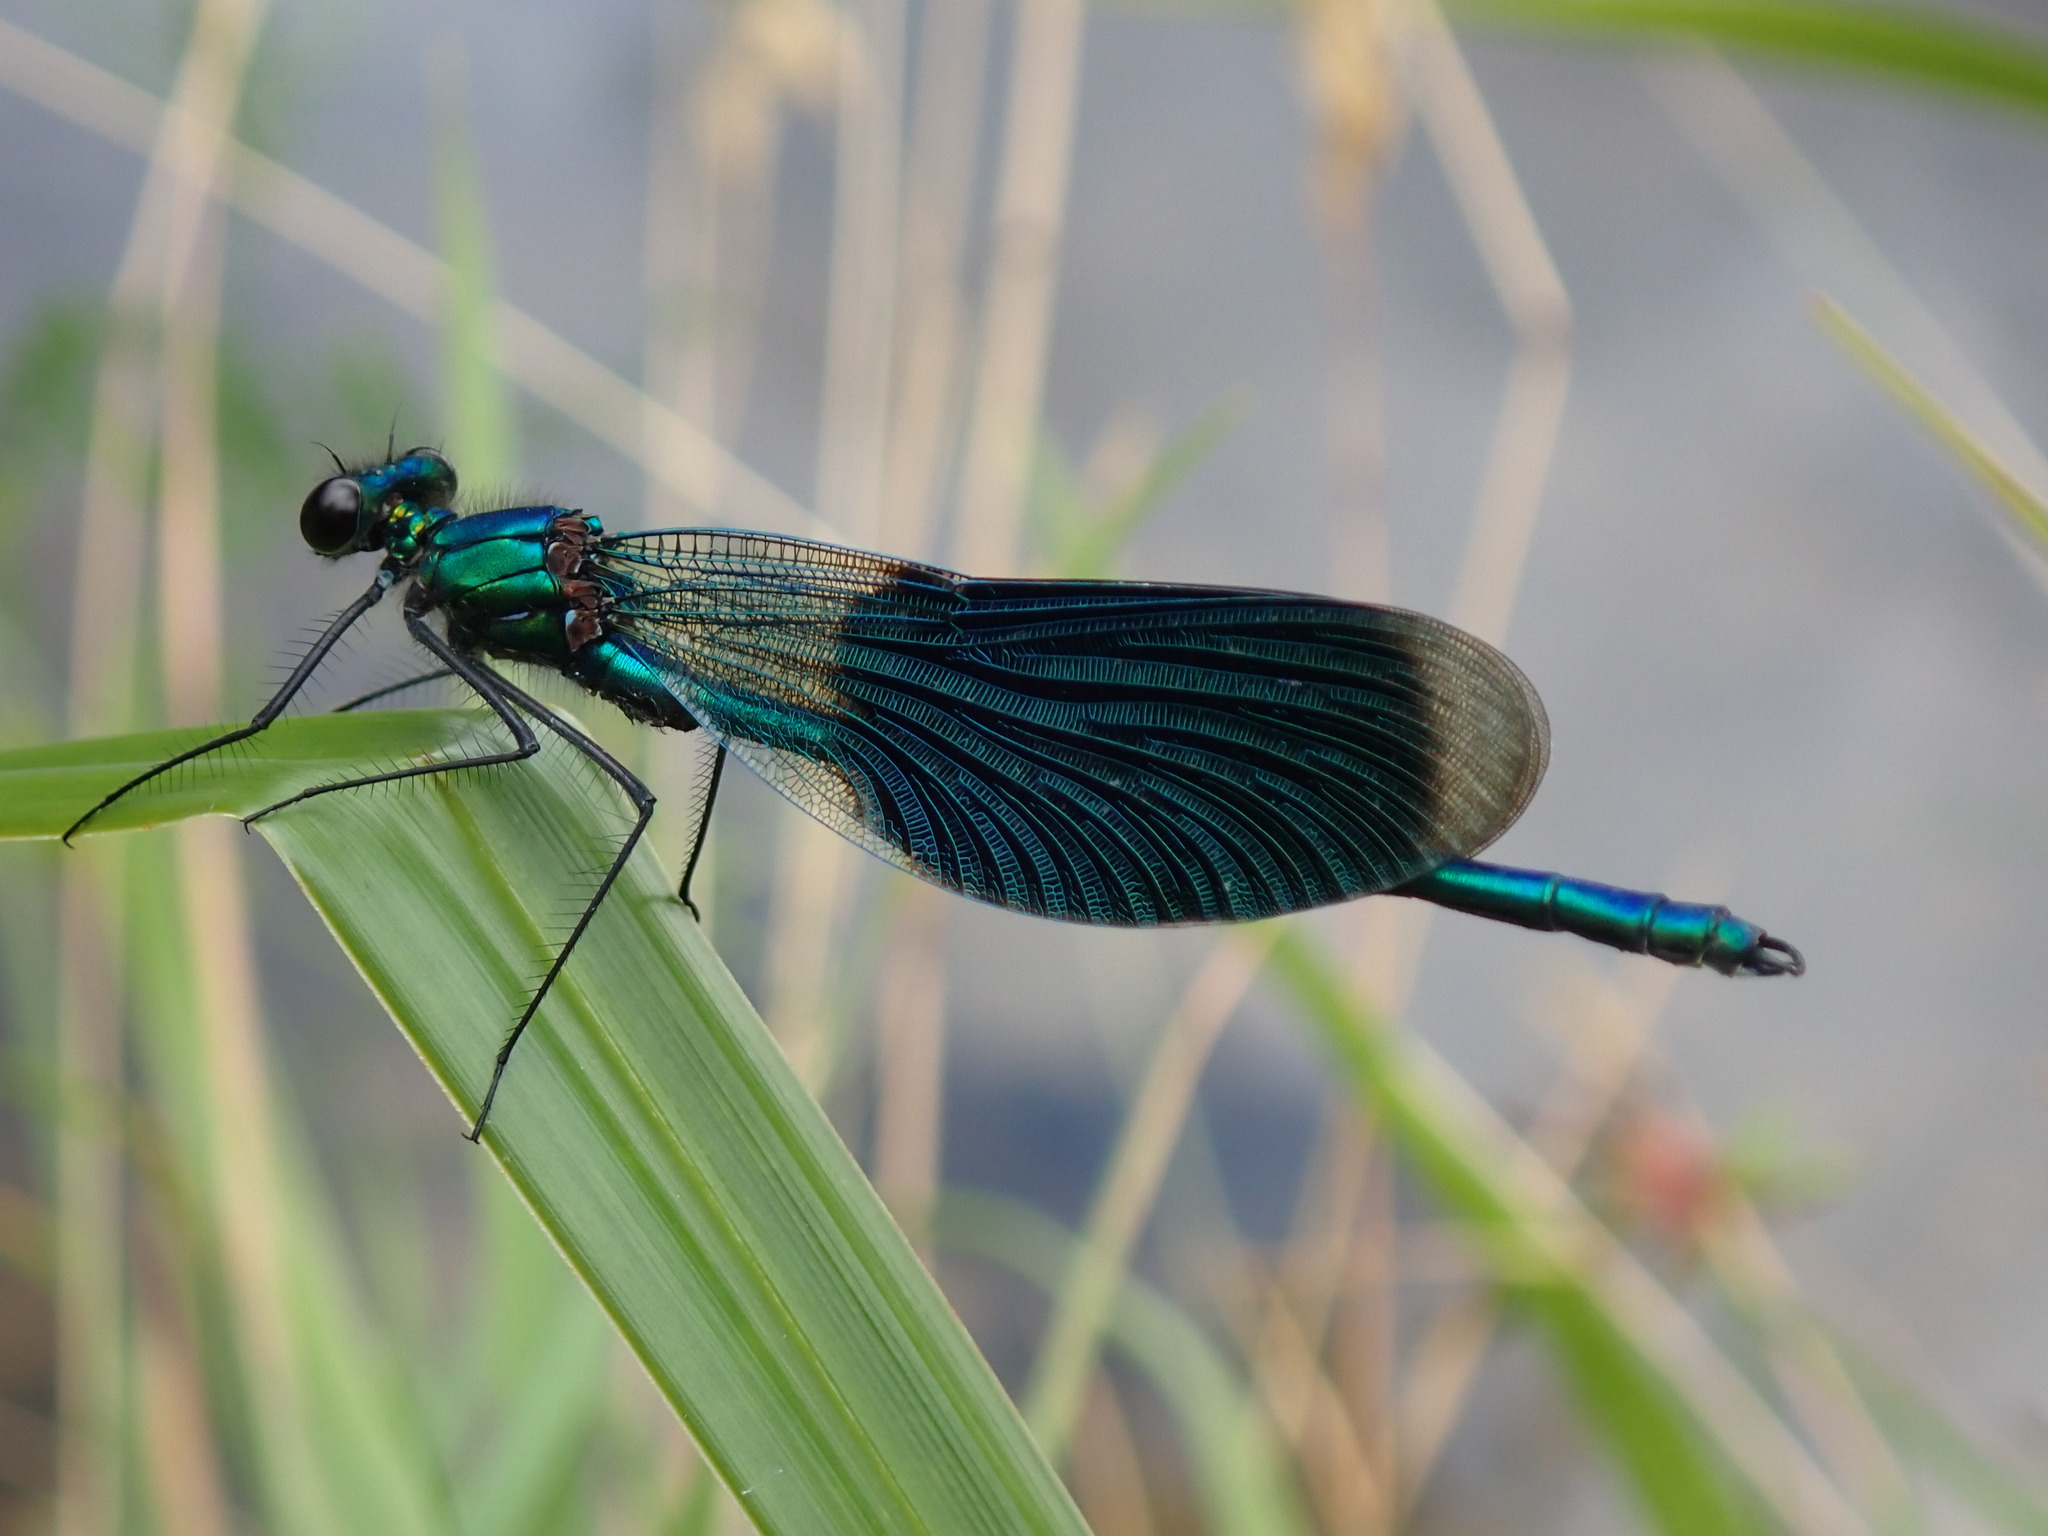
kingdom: Animalia
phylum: Arthropoda
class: Insecta
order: Odonata
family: Calopterygidae
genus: Calopteryx
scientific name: Calopteryx splendens
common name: Banded demoiselle
